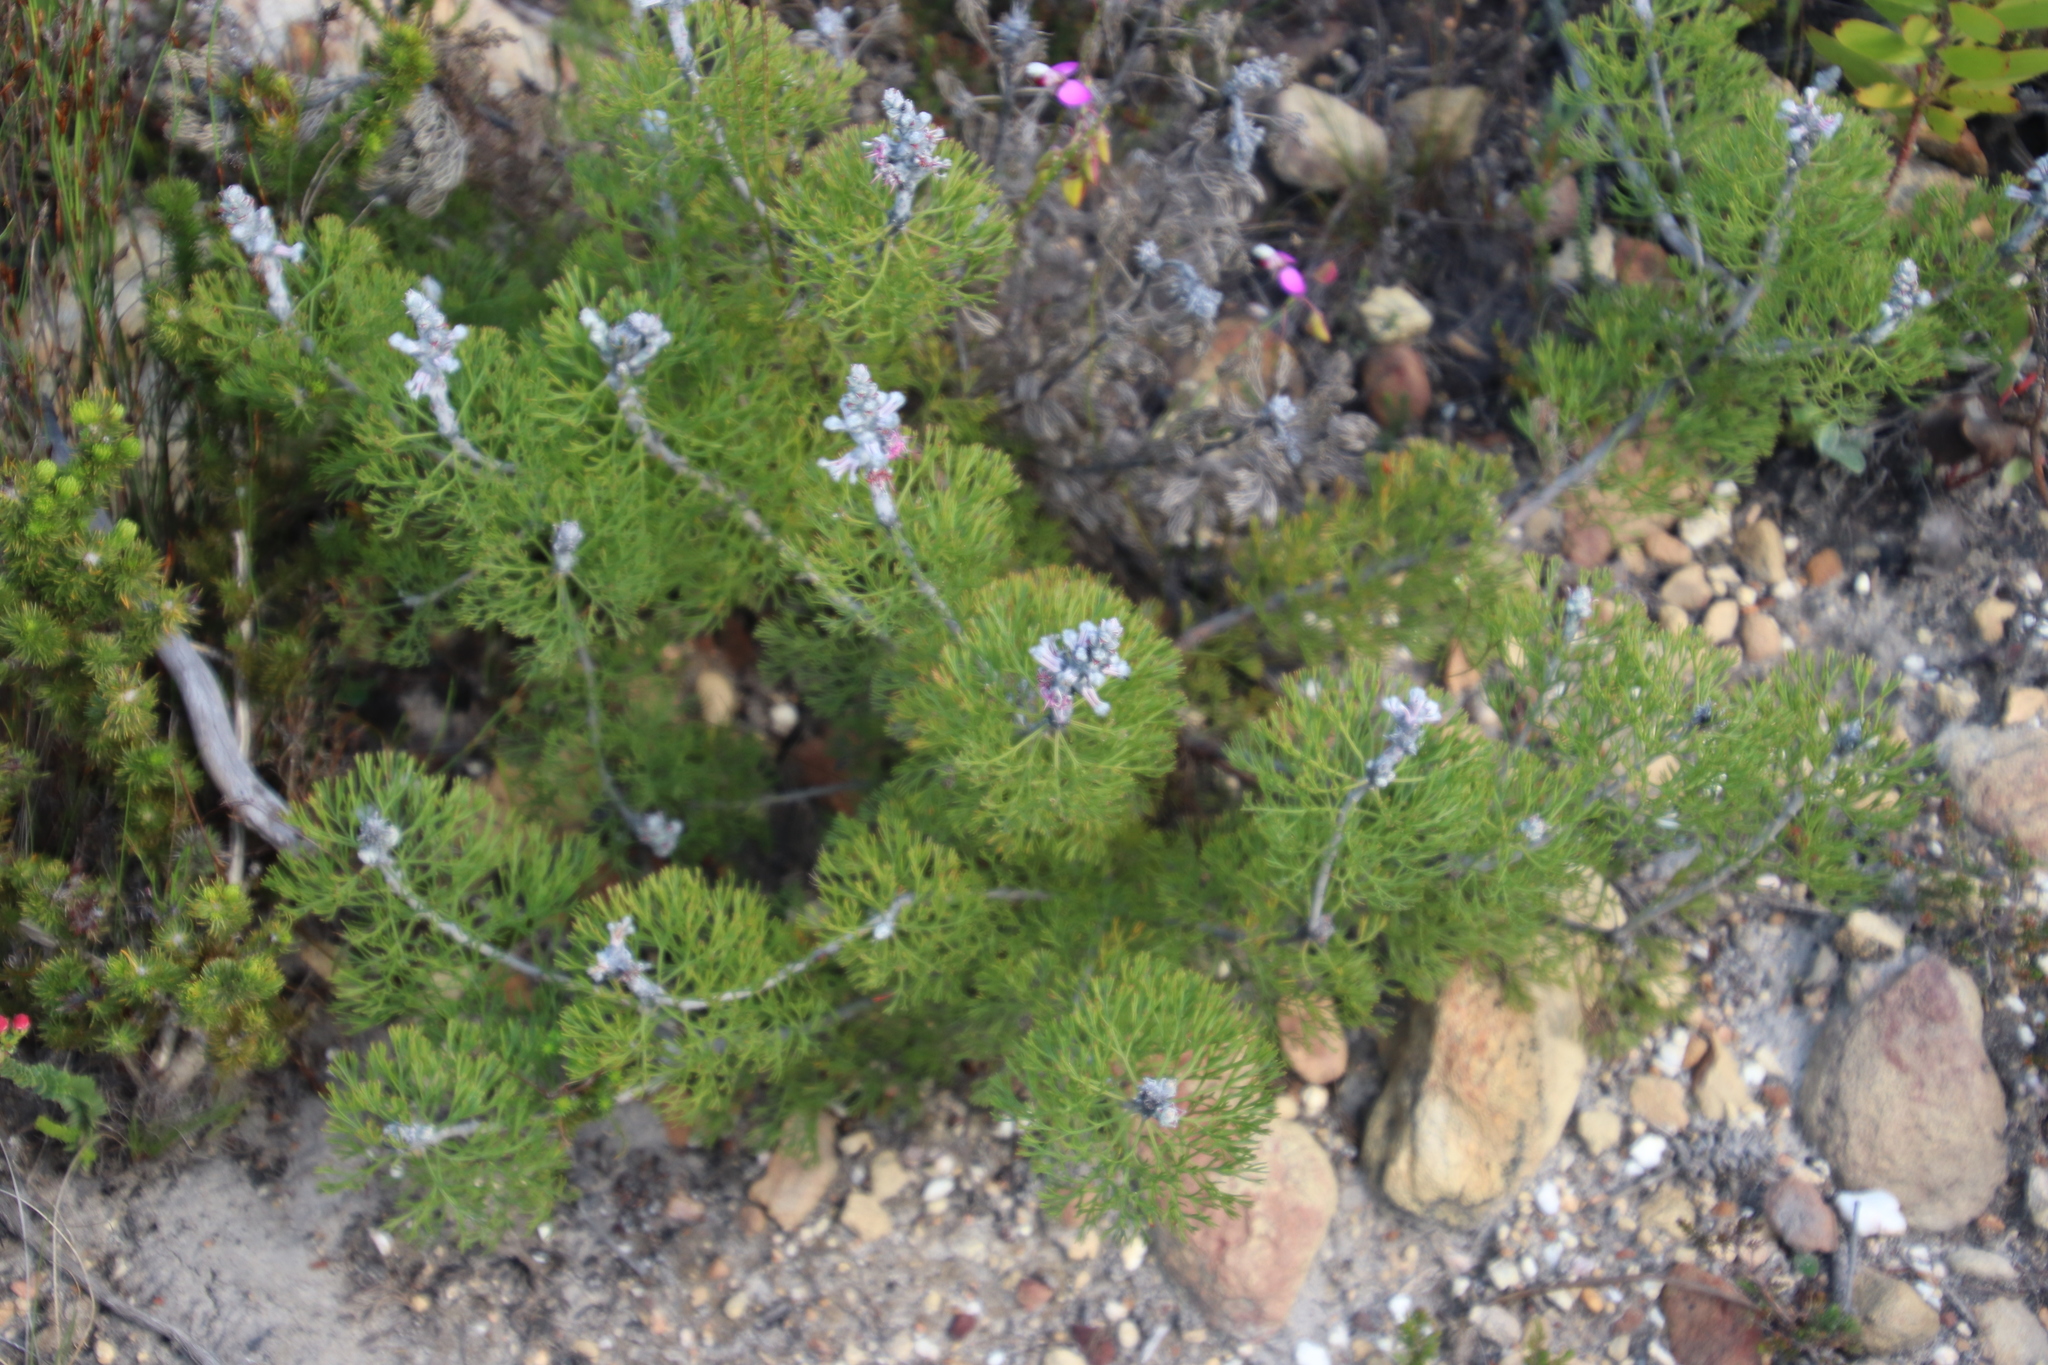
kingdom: Plantae
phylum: Tracheophyta
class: Magnoliopsida
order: Proteales
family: Proteaceae
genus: Paranomus
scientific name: Paranomus bolusii
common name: Overberg sceptre
